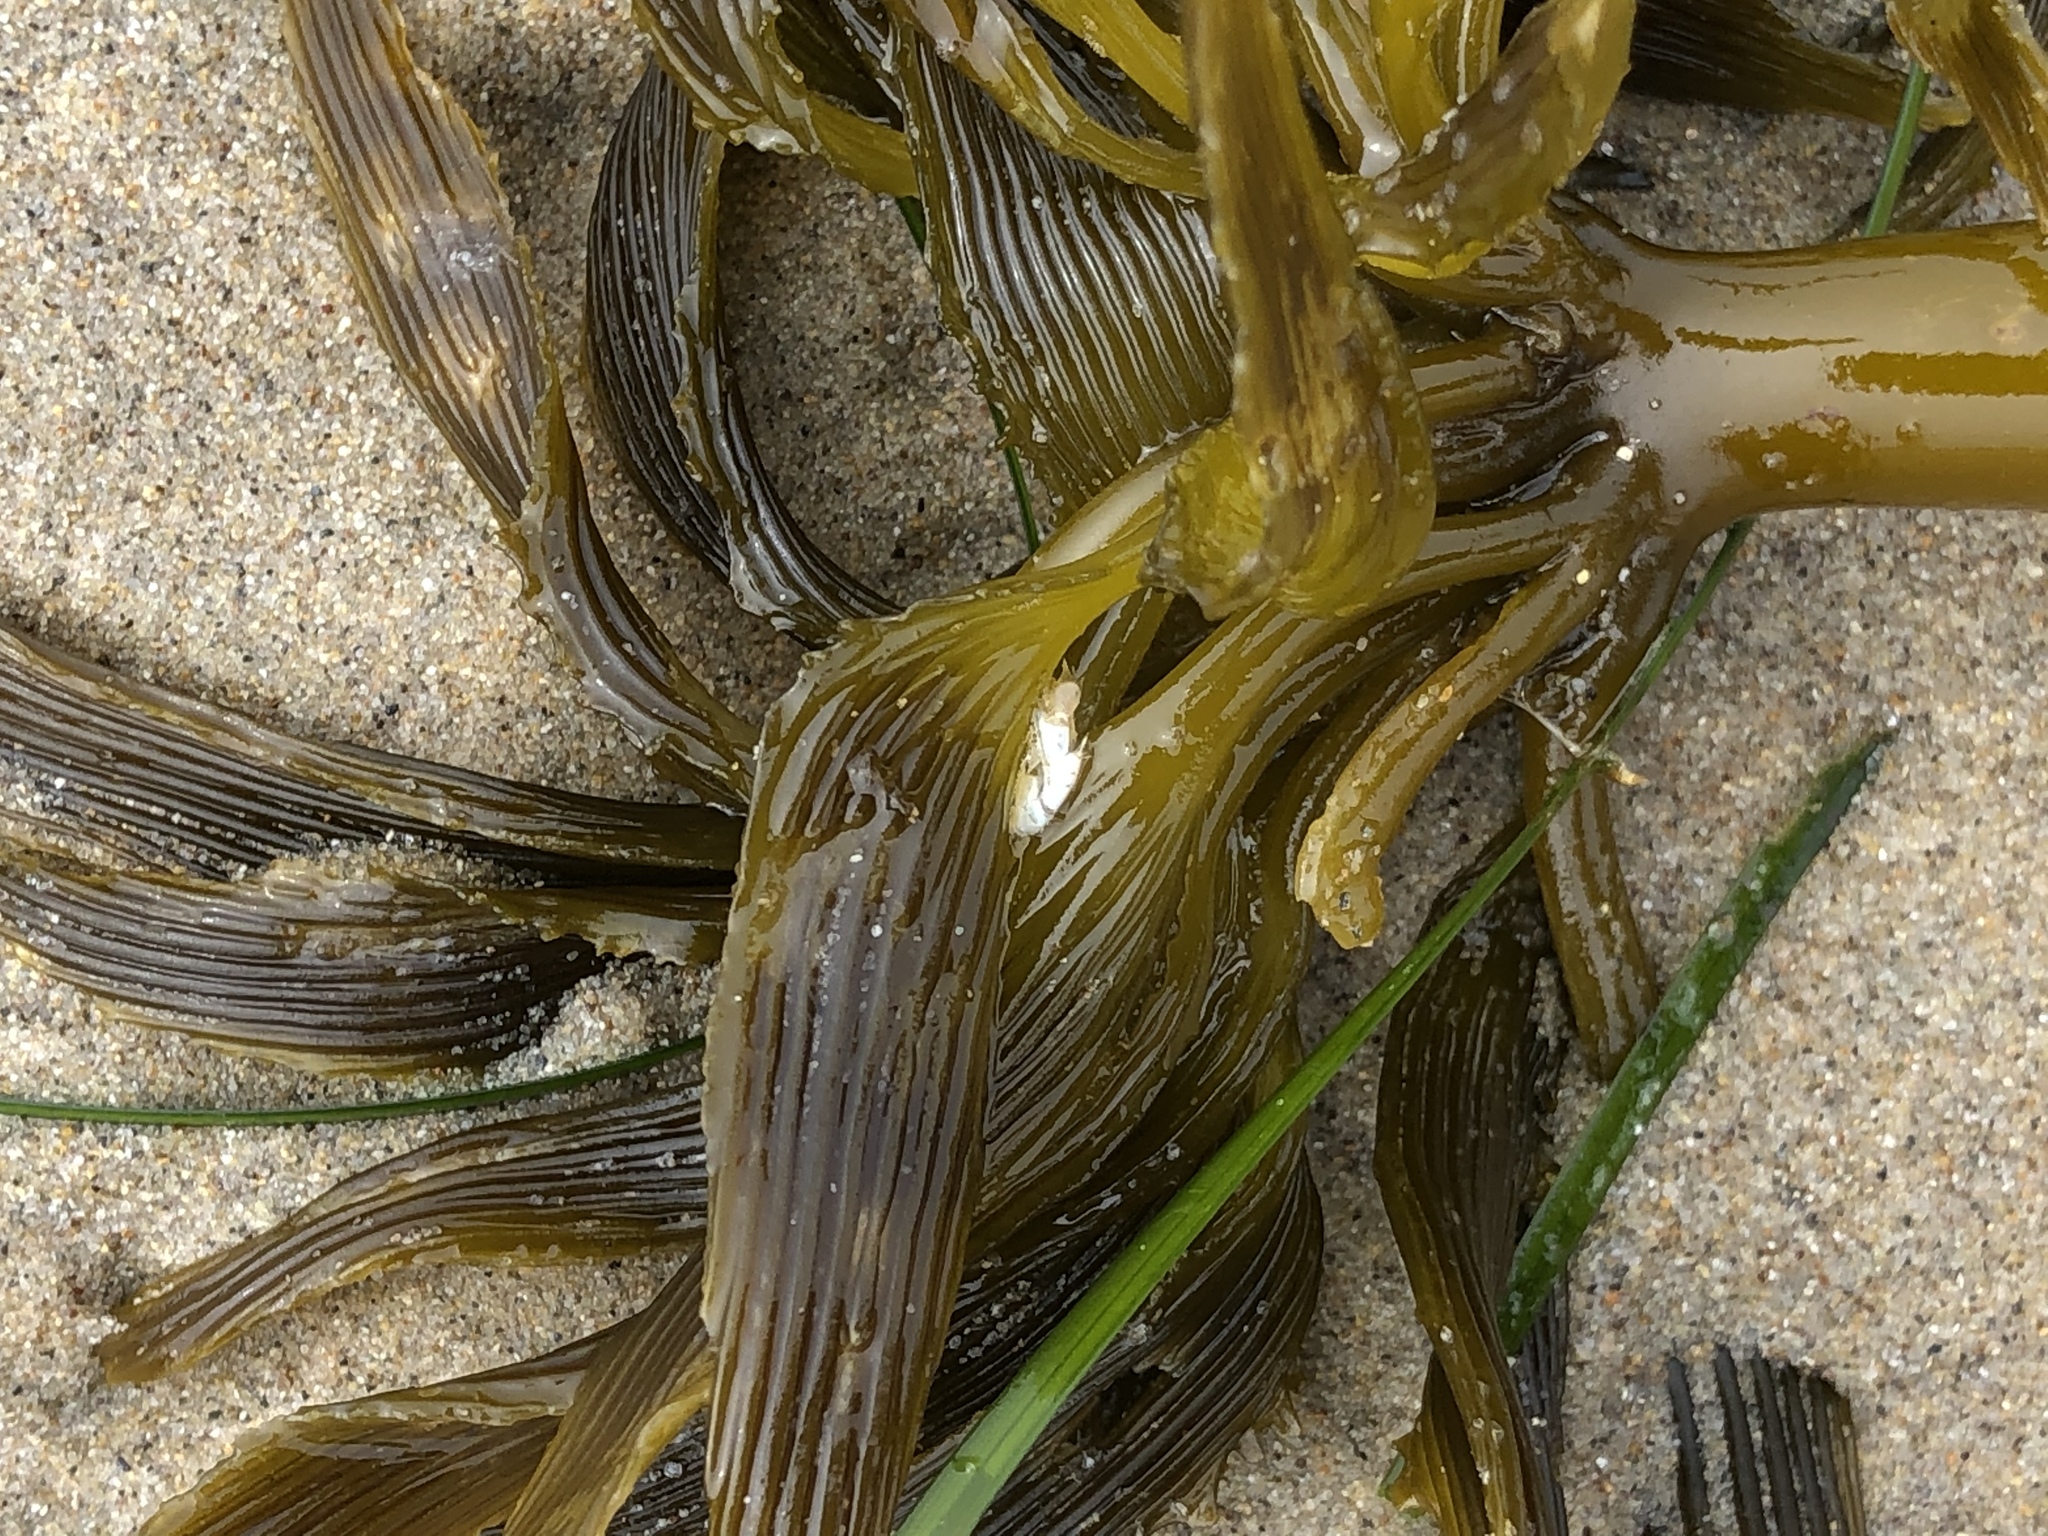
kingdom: Chromista
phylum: Ochrophyta
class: Phaeophyceae
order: Laminariales
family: Laminariaceae
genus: Postelsia
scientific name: Postelsia palmiformis
